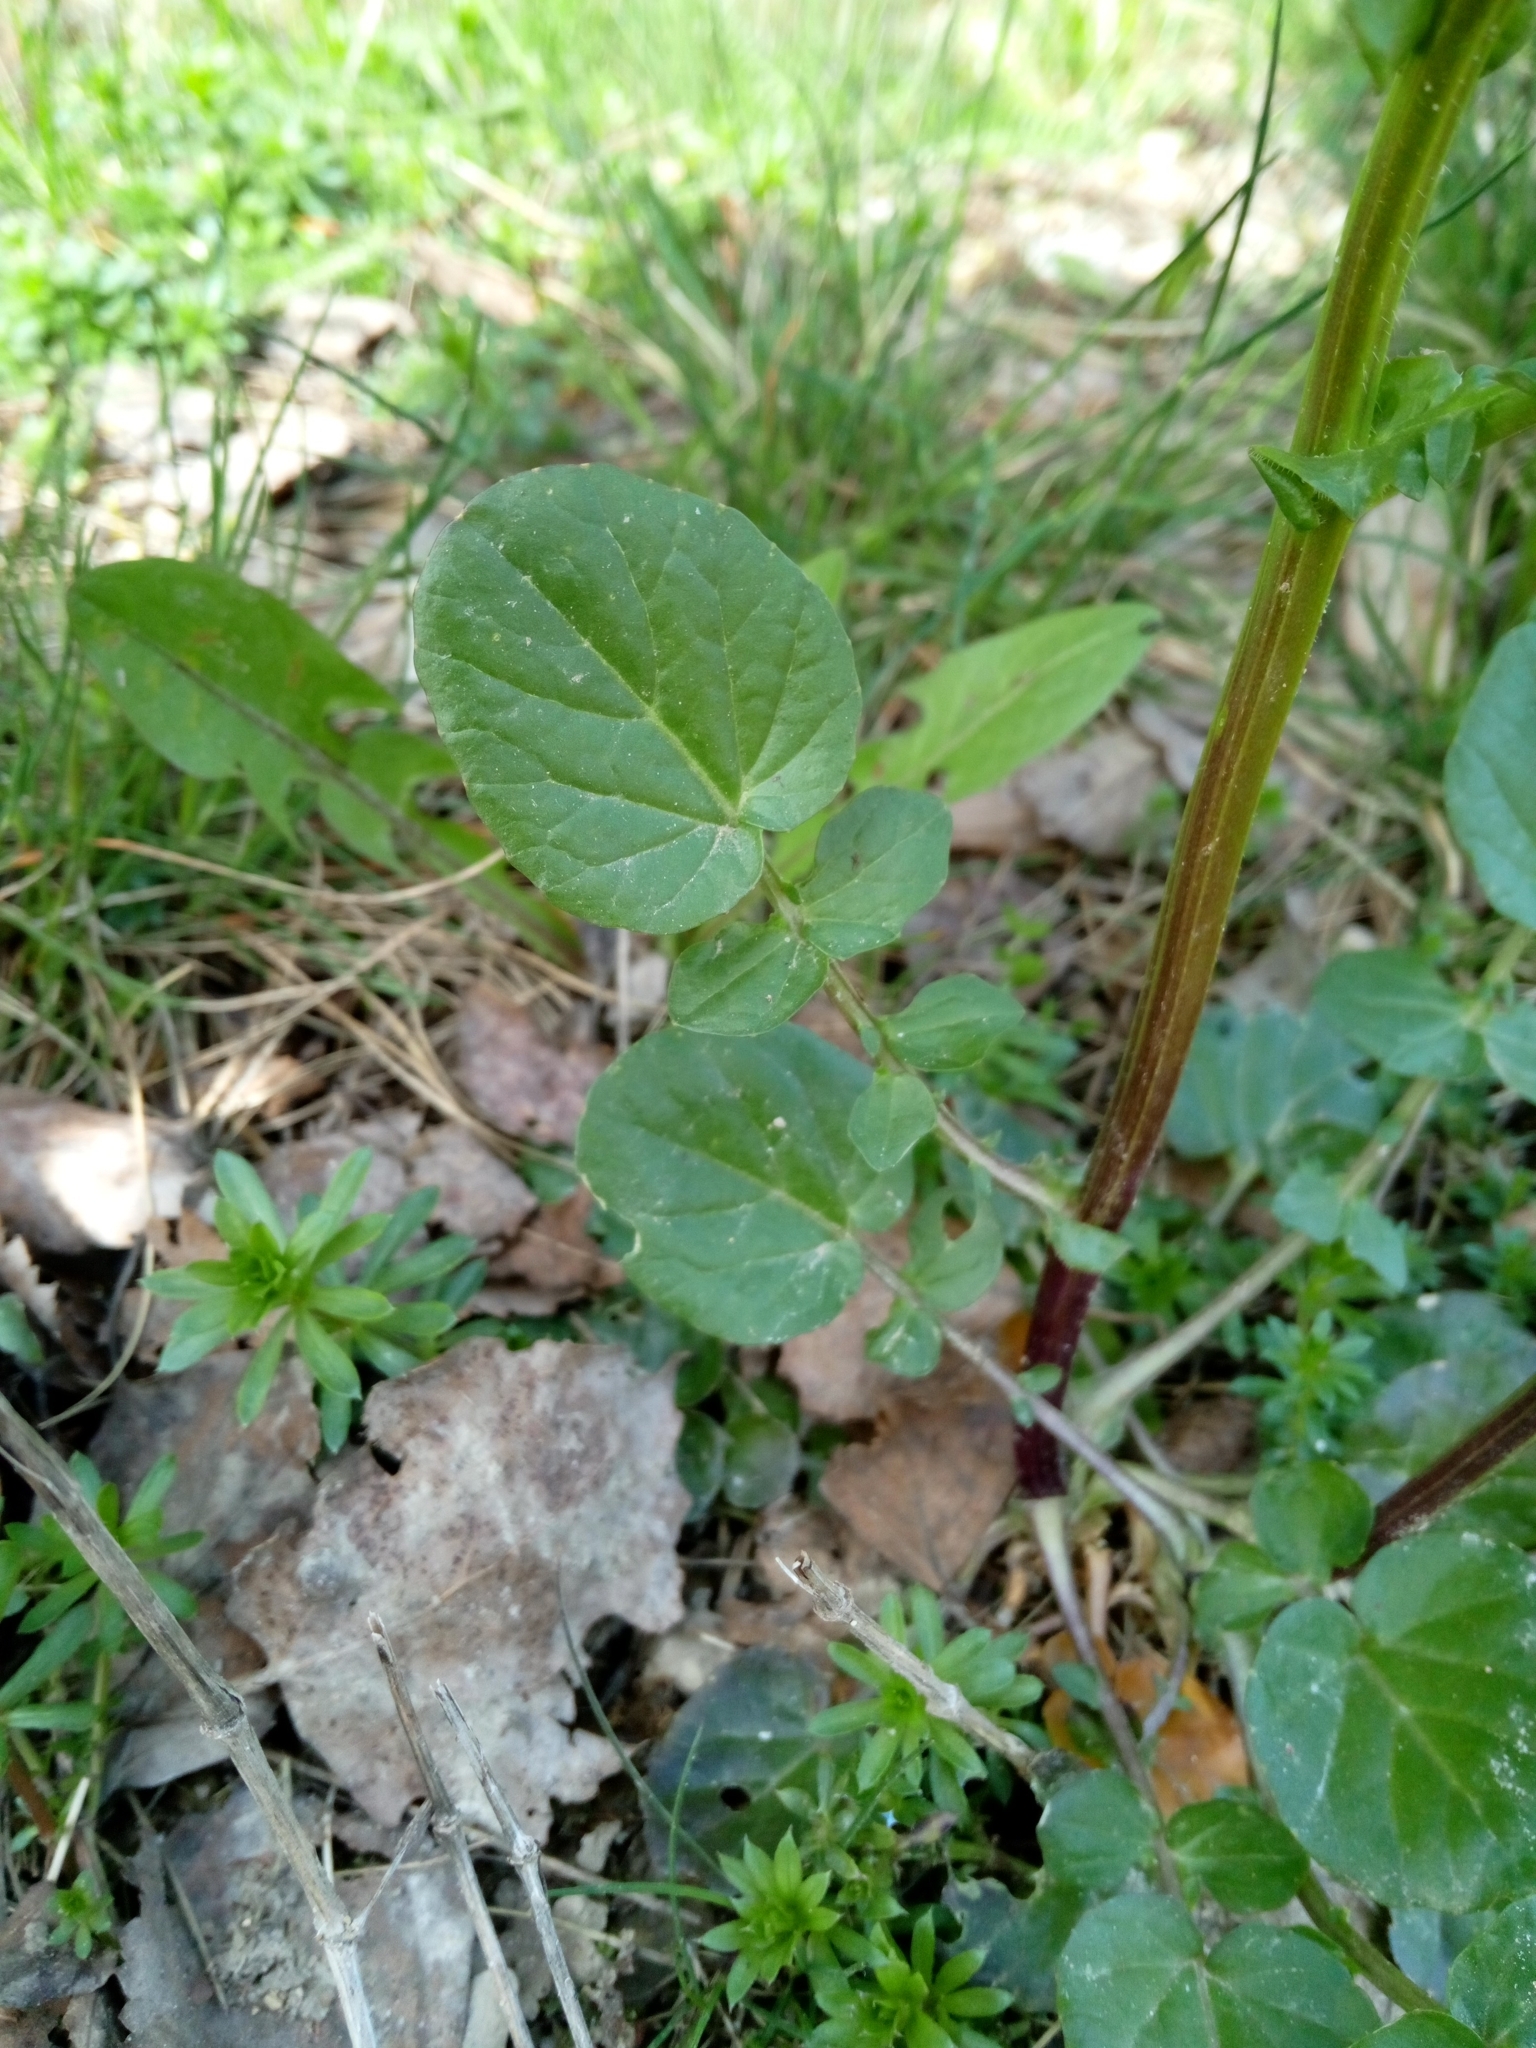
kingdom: Plantae
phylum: Tracheophyta
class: Magnoliopsida
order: Brassicales
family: Brassicaceae
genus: Barbarea
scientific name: Barbarea vulgaris
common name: Cressy-greens
